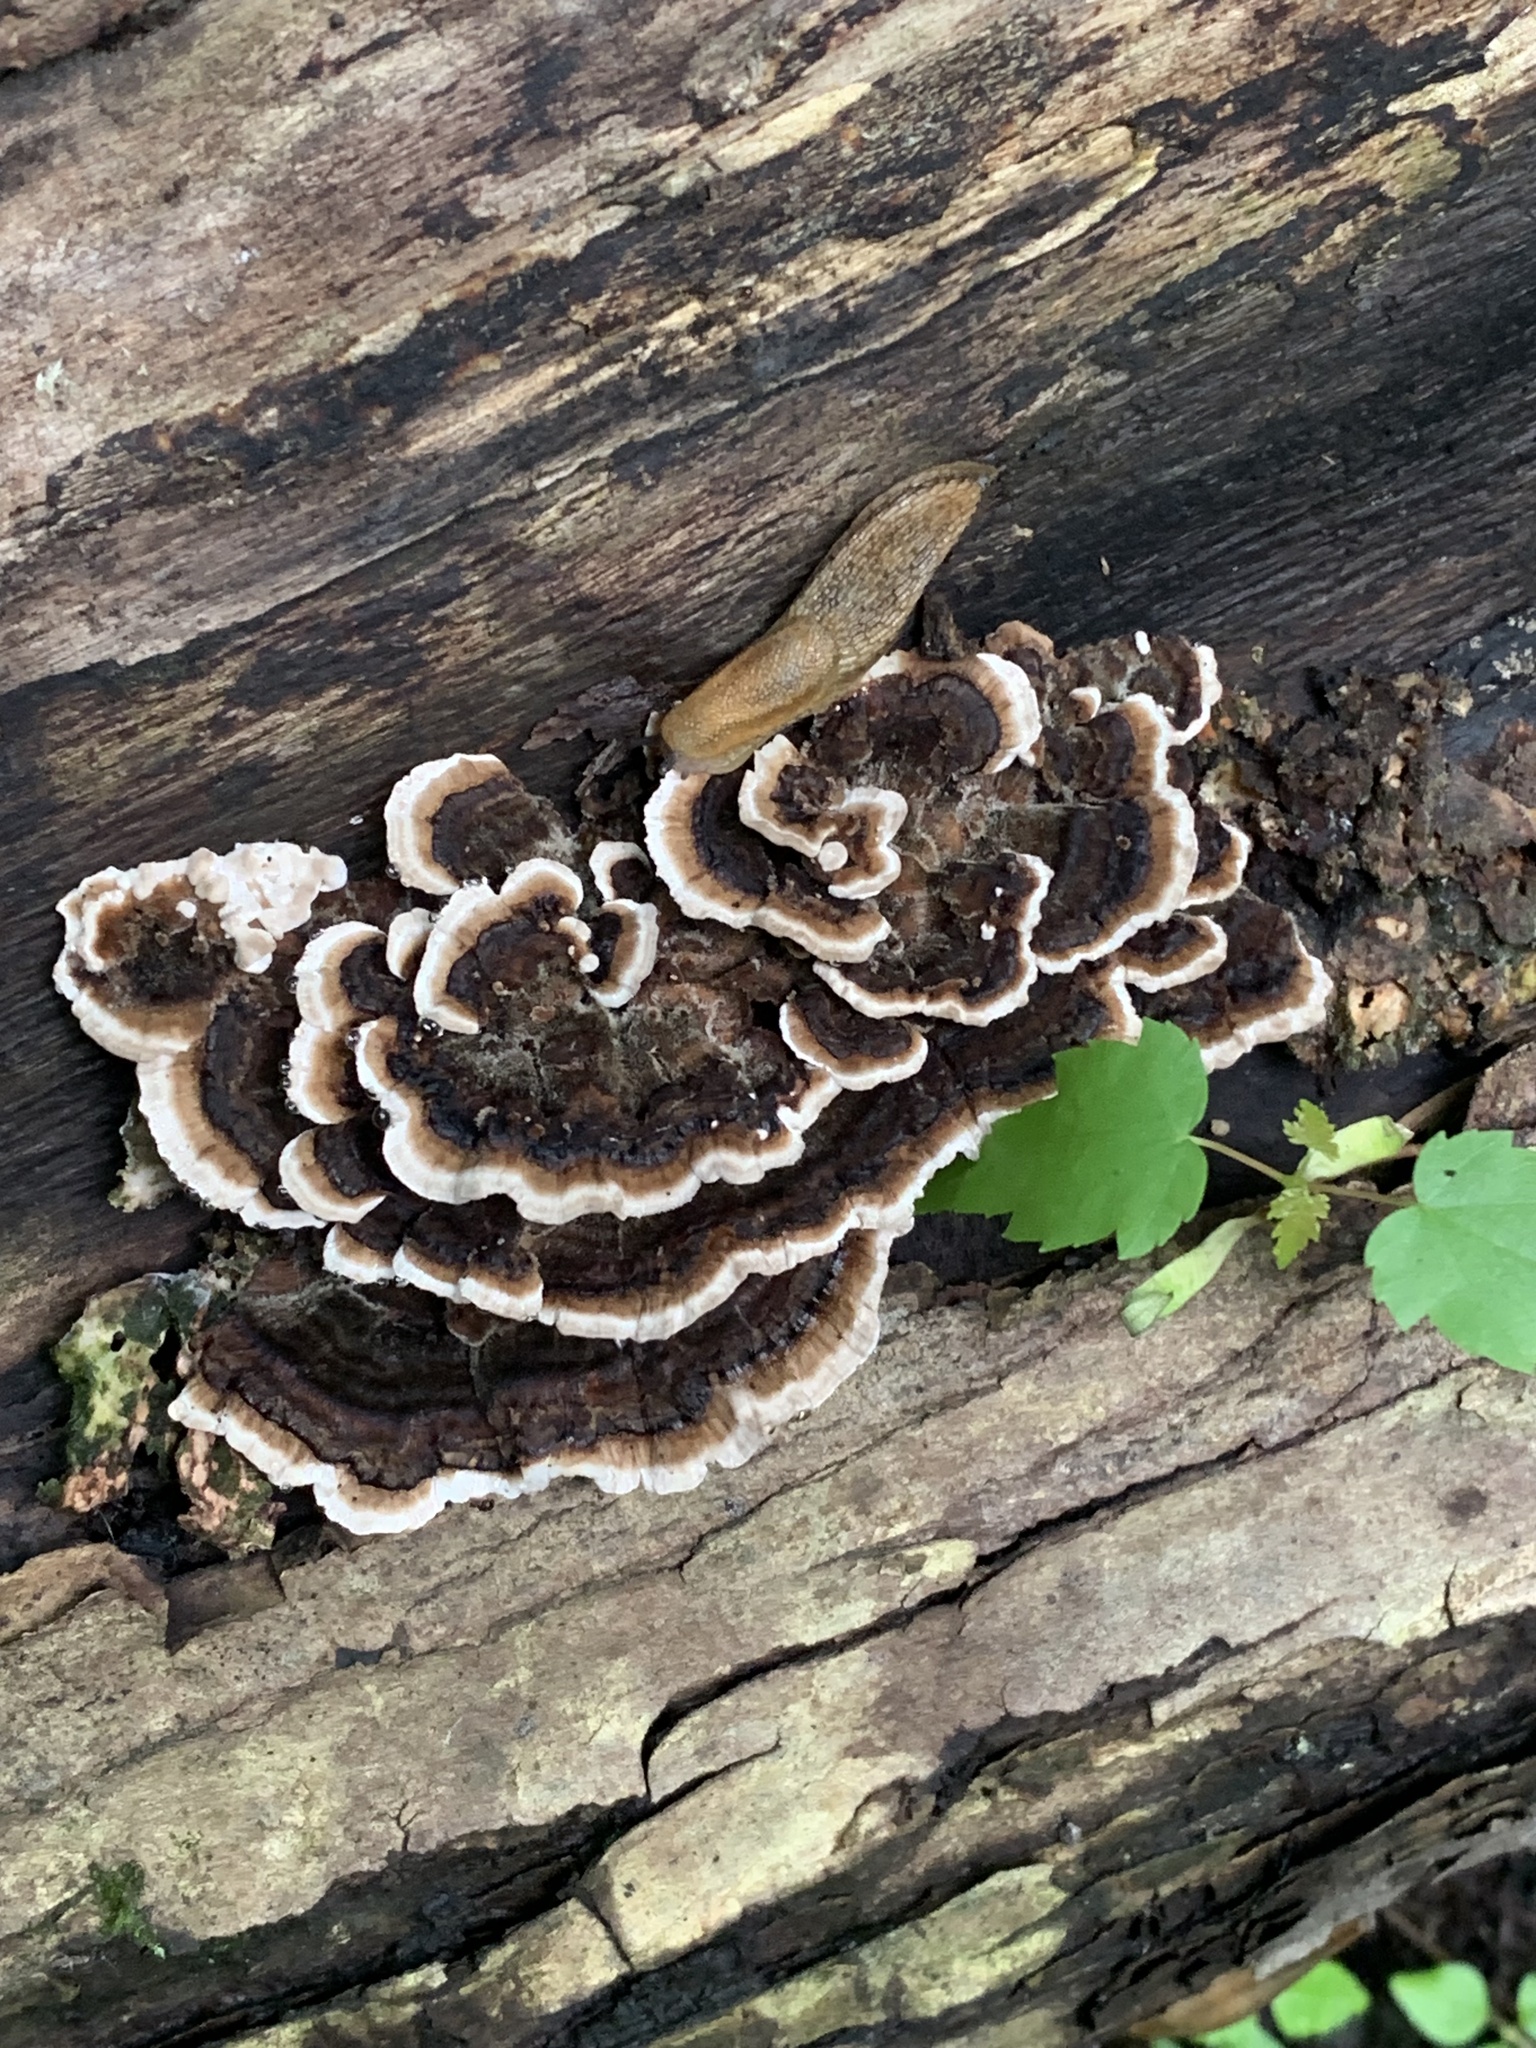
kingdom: Fungi
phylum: Basidiomycota
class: Agaricomycetes
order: Polyporales
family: Polyporaceae
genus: Trametes
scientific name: Trametes versicolor
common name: Turkeytail
